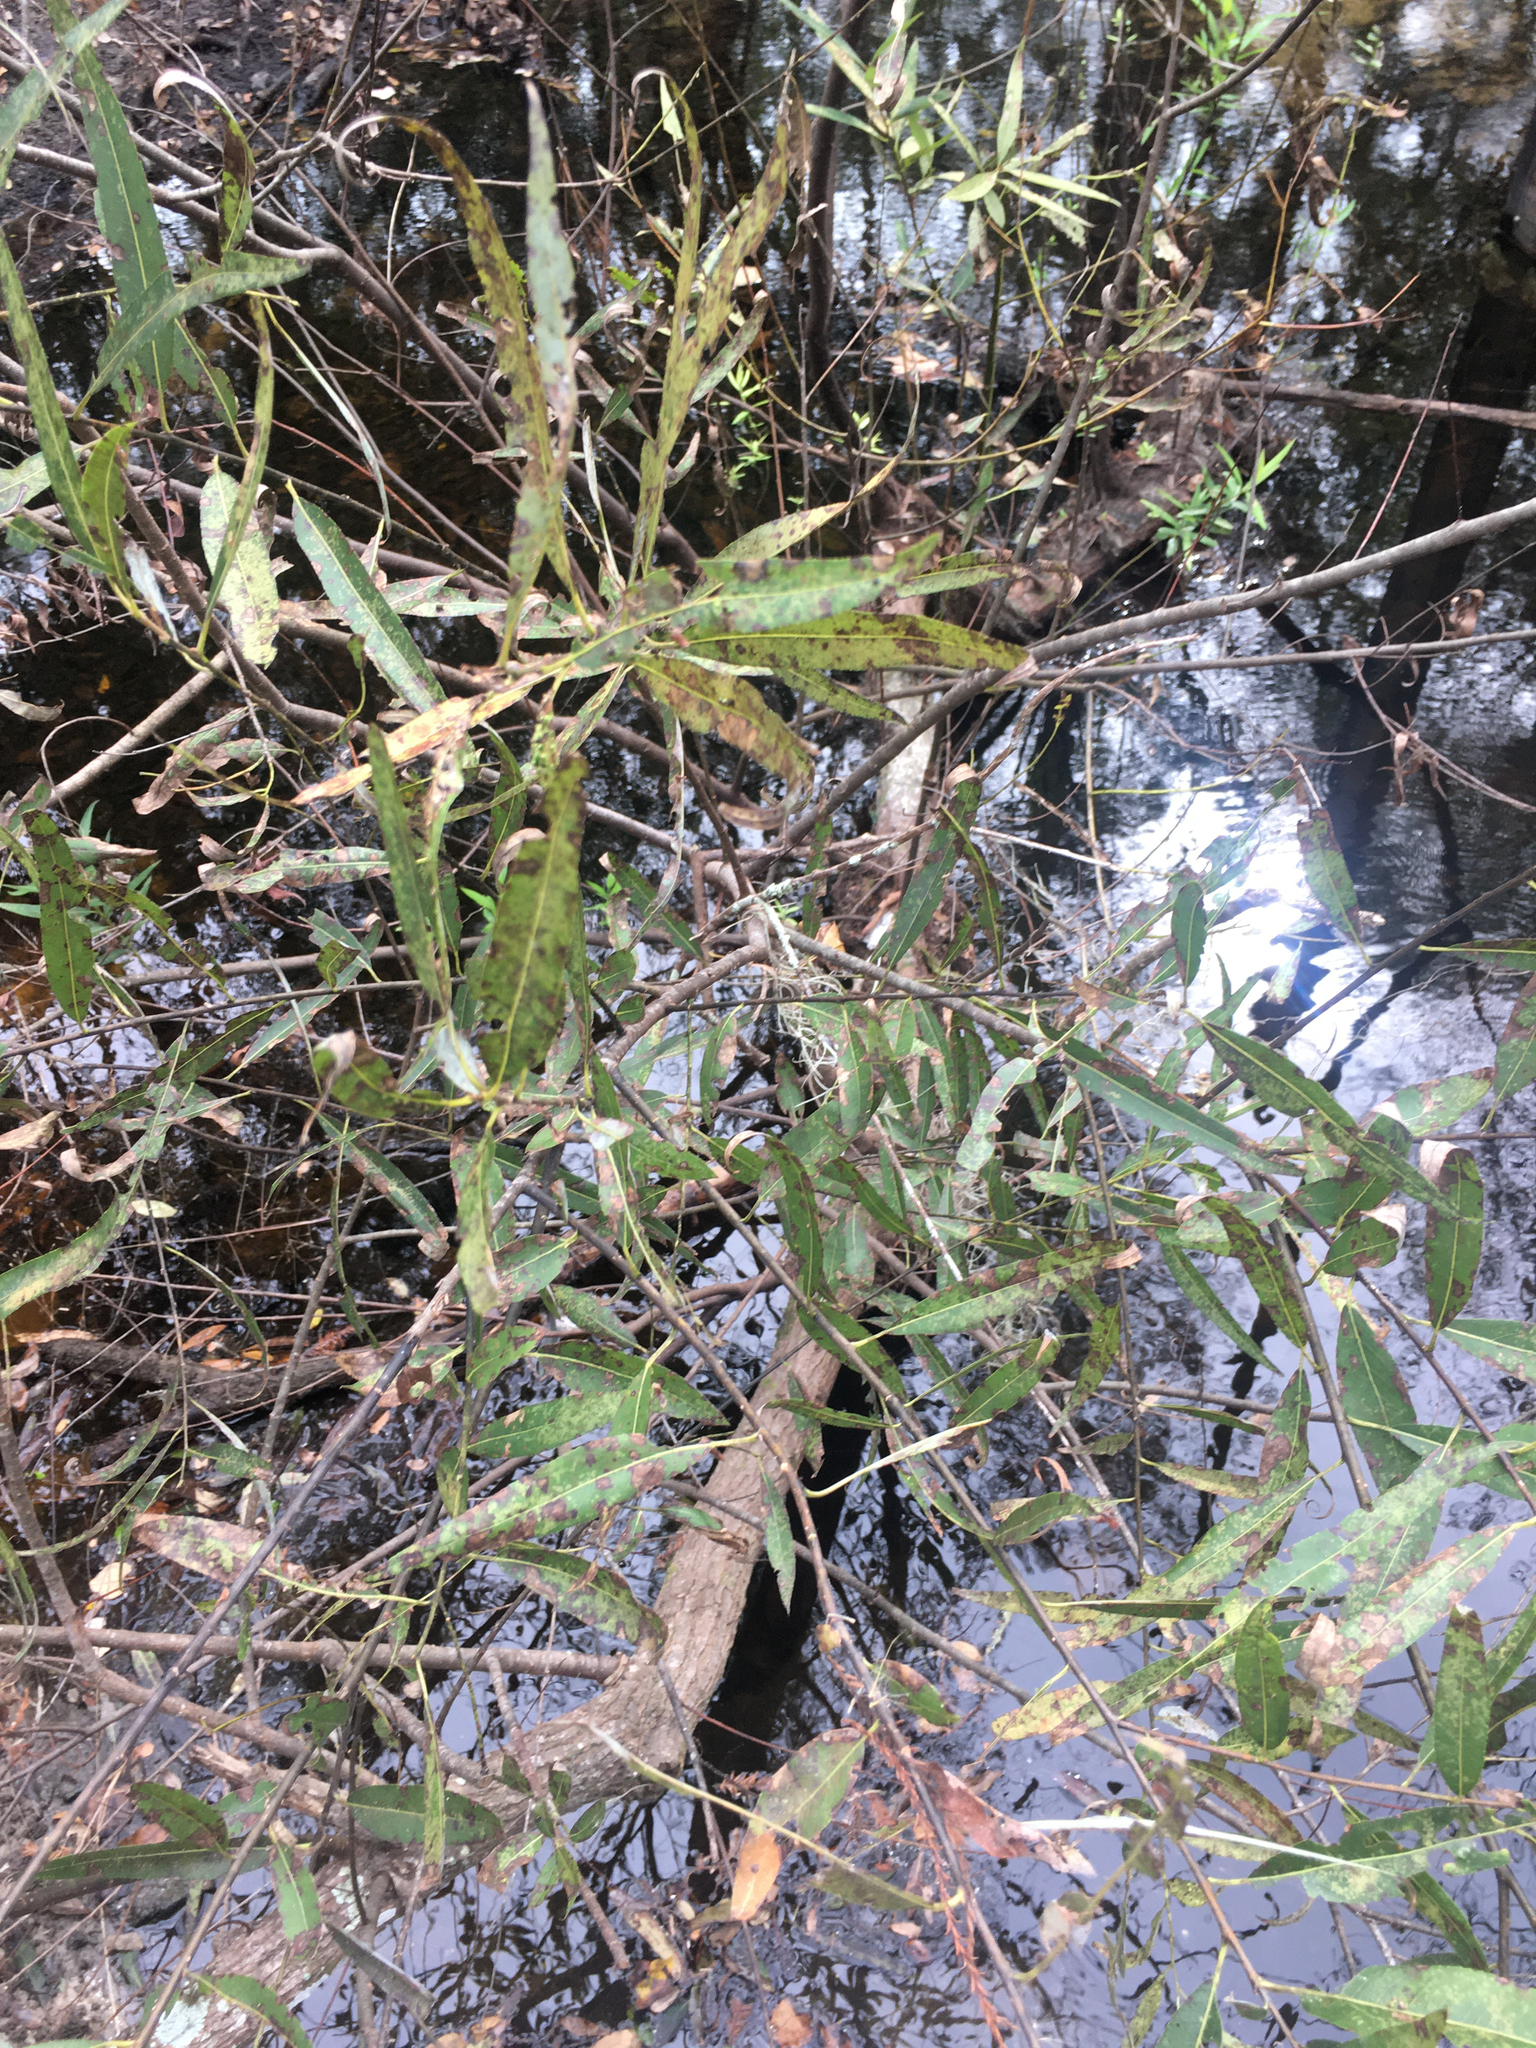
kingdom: Plantae
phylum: Tracheophyta
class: Magnoliopsida
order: Malpighiales
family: Salicaceae
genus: Salix
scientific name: Salix caroliniana
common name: Carolina willow
